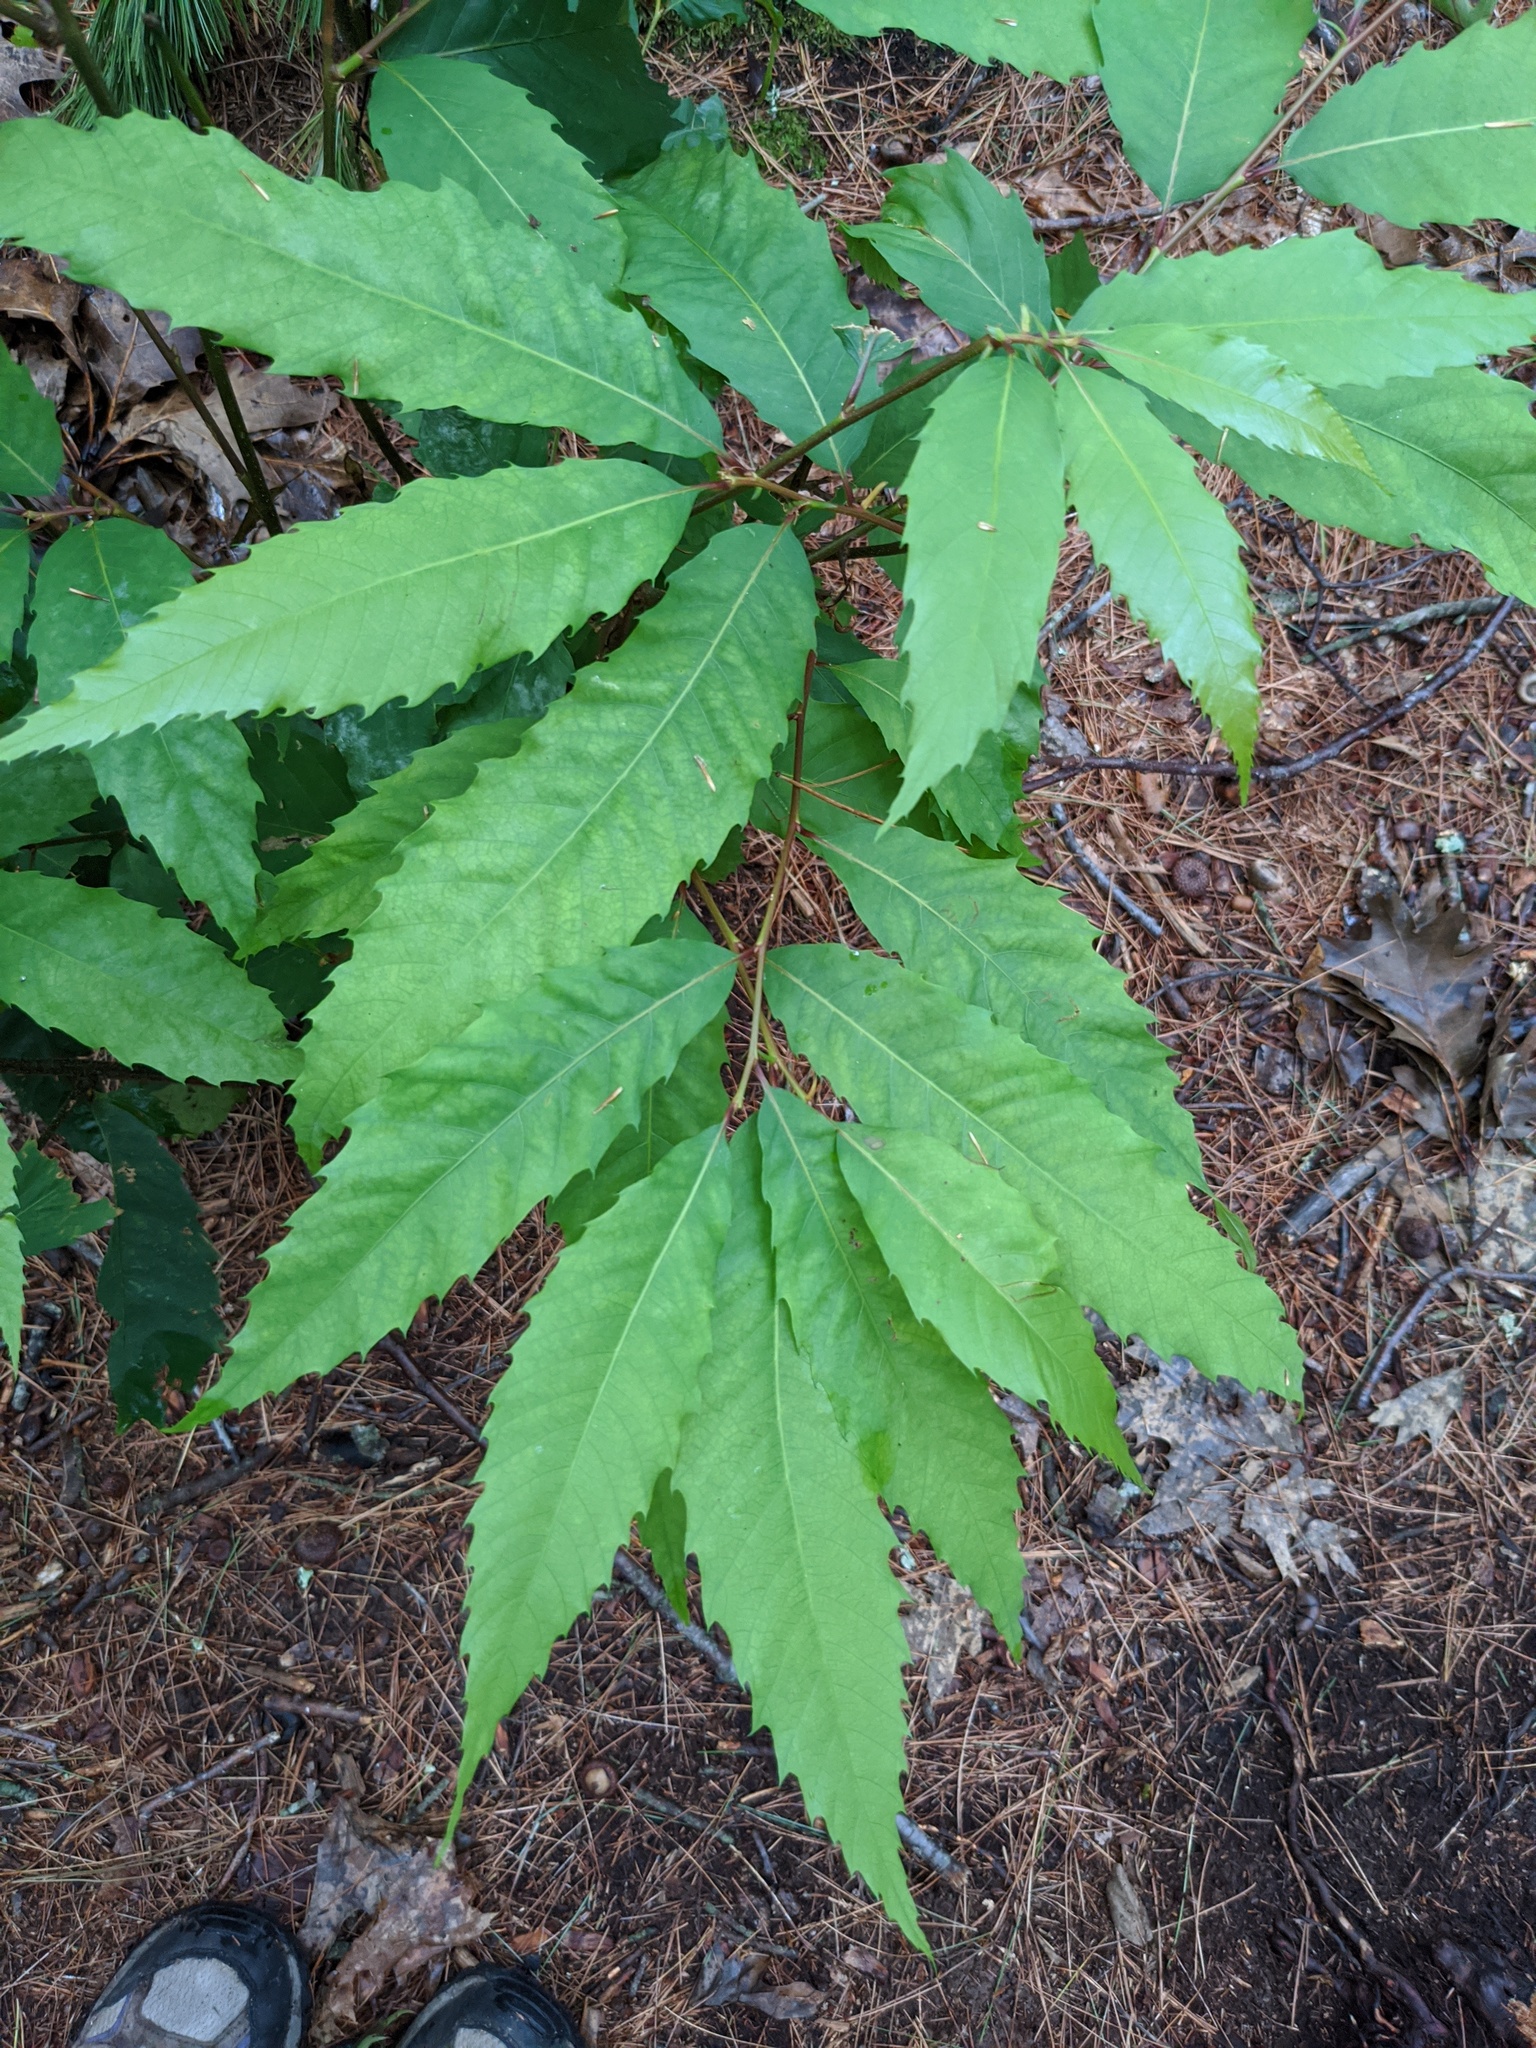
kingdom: Plantae
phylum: Tracheophyta
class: Magnoliopsida
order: Fagales
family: Fagaceae
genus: Castanea
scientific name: Castanea dentata
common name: American chestnut
